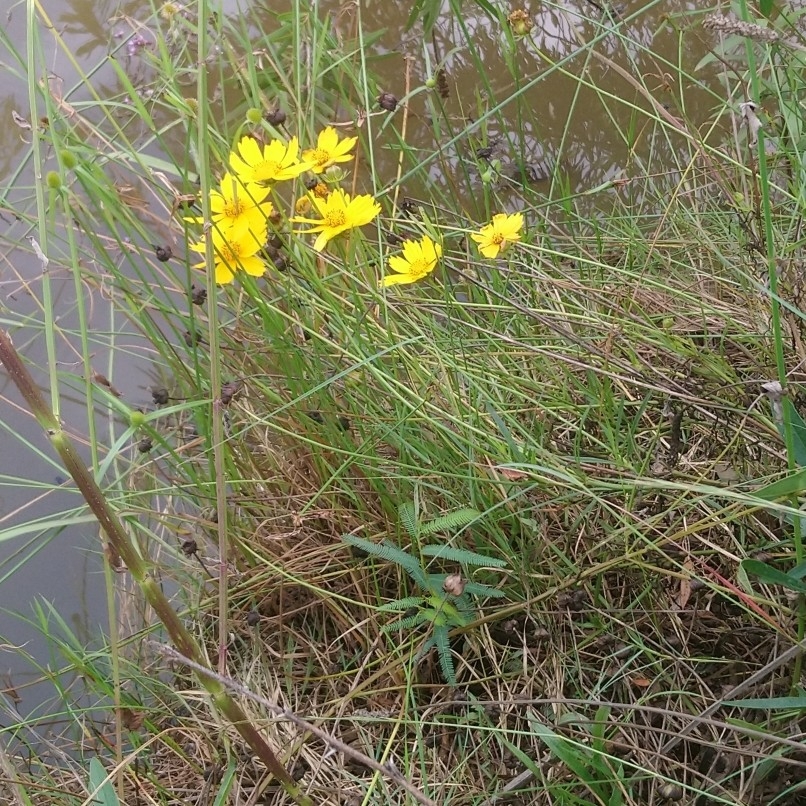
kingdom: Plantae
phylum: Tracheophyta
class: Magnoliopsida
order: Asterales
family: Asteraceae
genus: Coreopsis
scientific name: Coreopsis lanceolata
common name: Garden coreopsis
